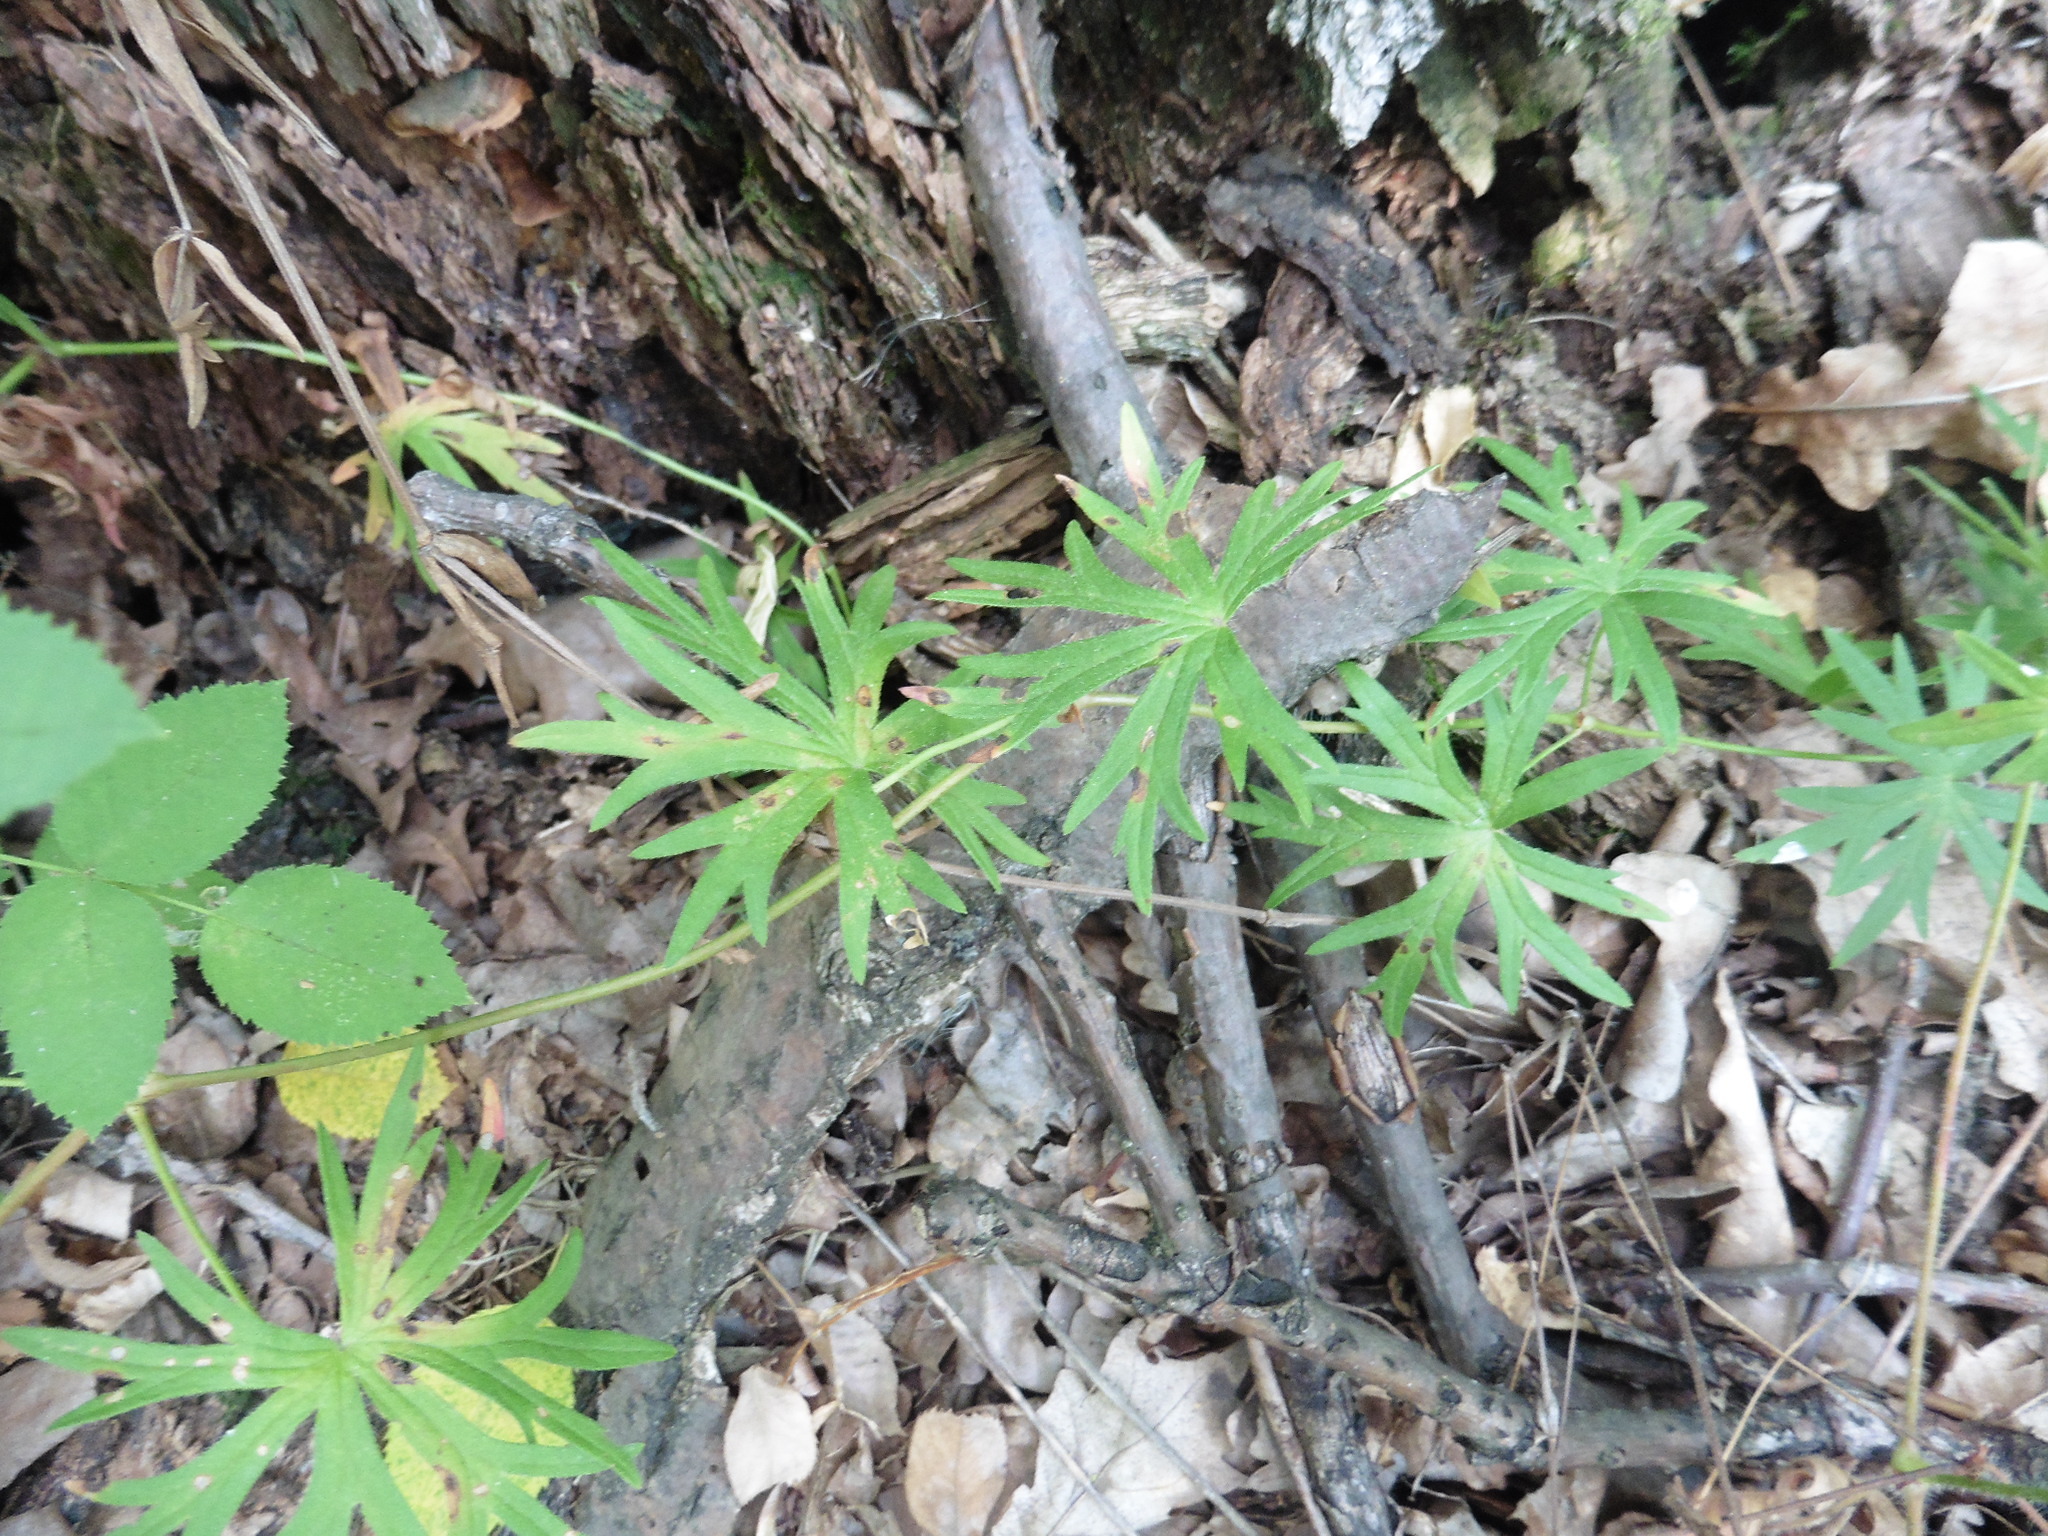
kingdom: Plantae
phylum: Tracheophyta
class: Magnoliopsida
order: Geraniales
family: Geraniaceae
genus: Geranium
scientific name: Geranium sanguineum
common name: Bloody crane's-bill
